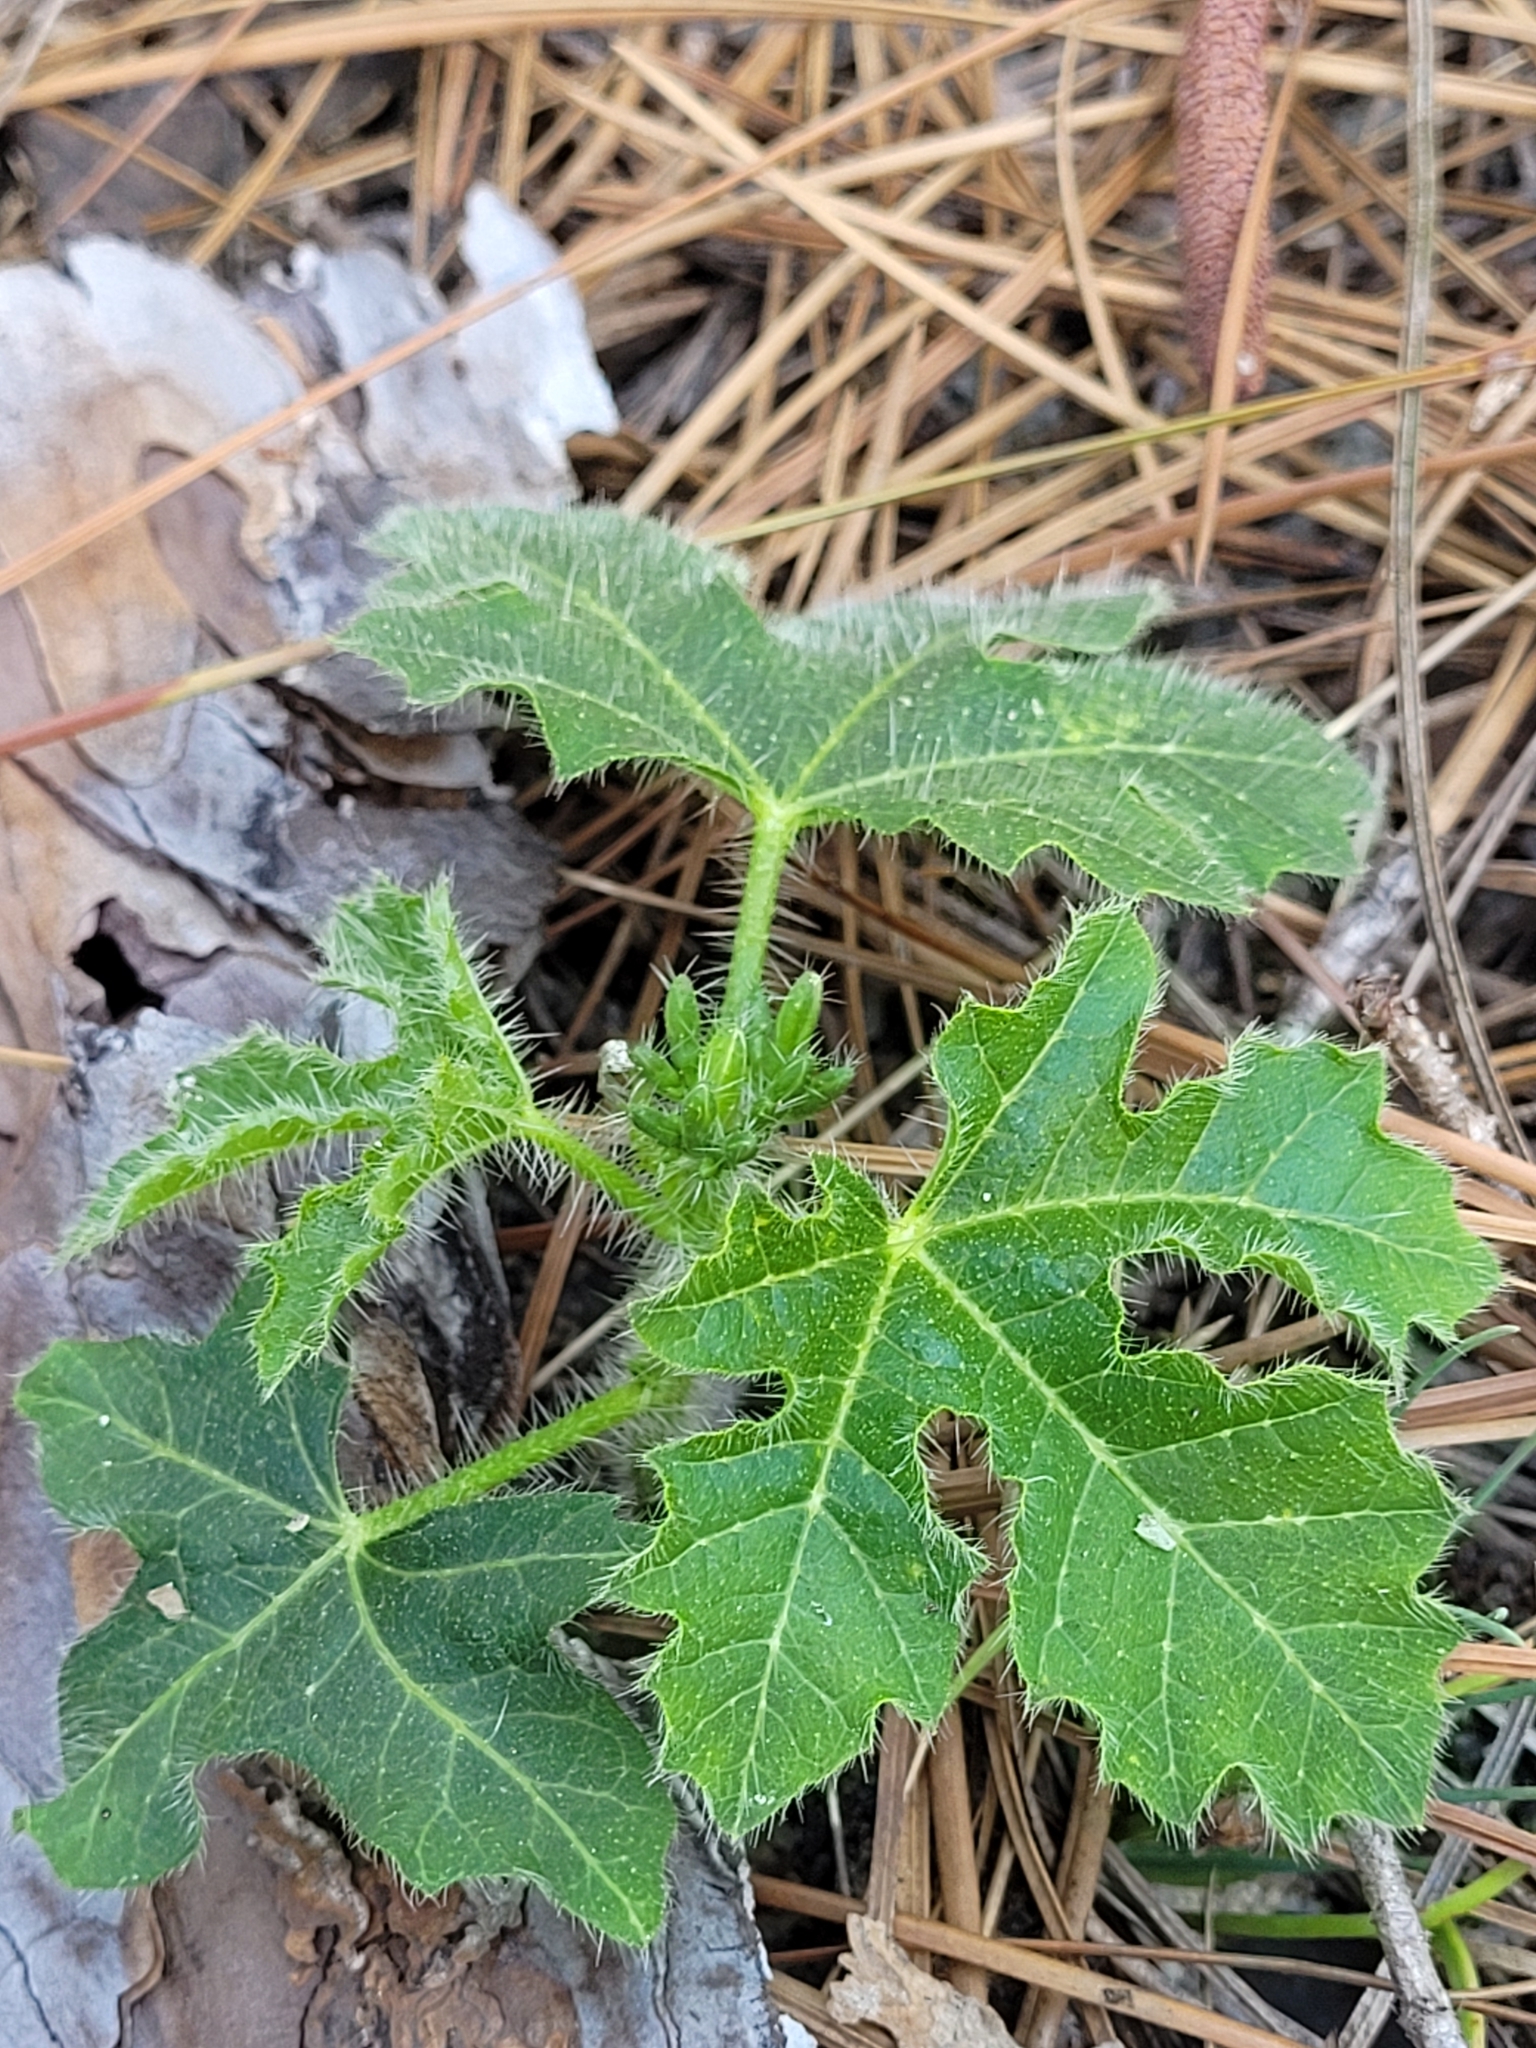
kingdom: Plantae
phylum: Tracheophyta
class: Magnoliopsida
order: Malpighiales
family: Euphorbiaceae
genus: Cnidoscolus
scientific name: Cnidoscolus stimulosus
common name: Bull-nettle
